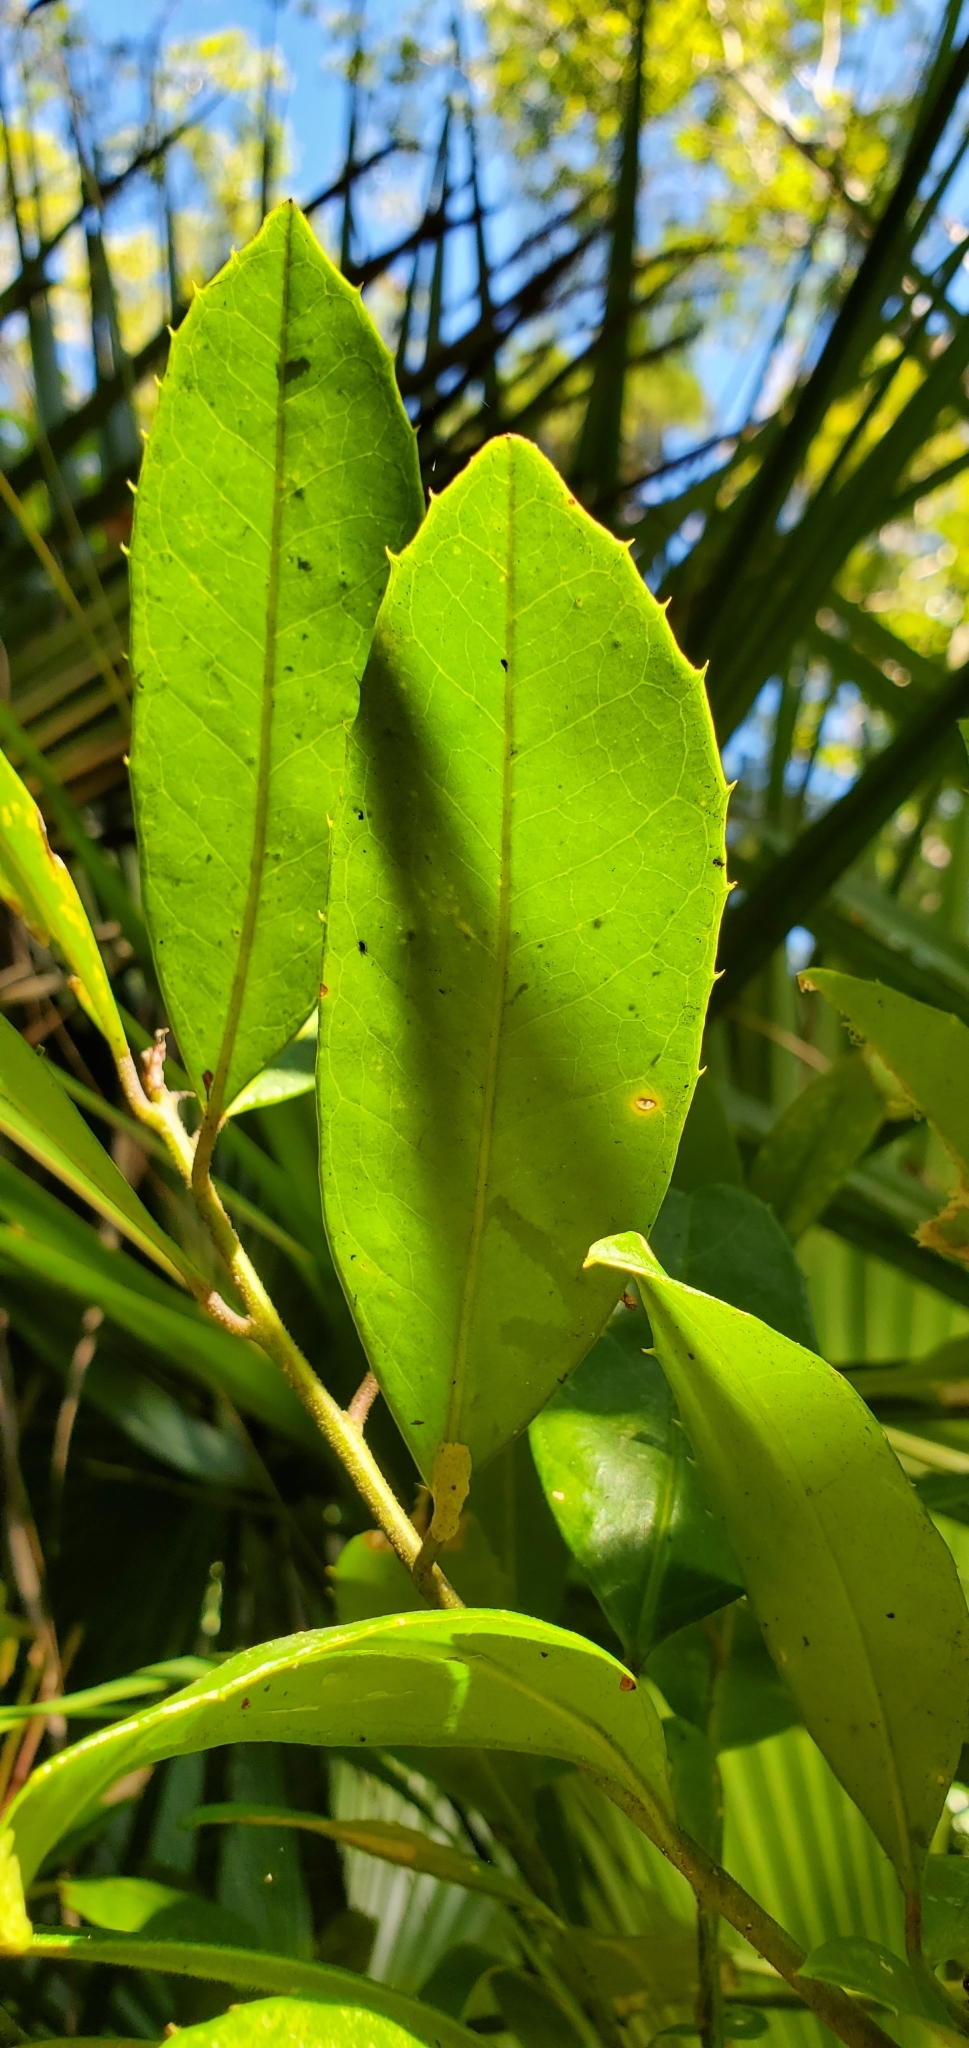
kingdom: Plantae
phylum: Tracheophyta
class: Magnoliopsida
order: Aquifoliales
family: Aquifoliaceae
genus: Ilex
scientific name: Ilex cassine
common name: Dahoon
